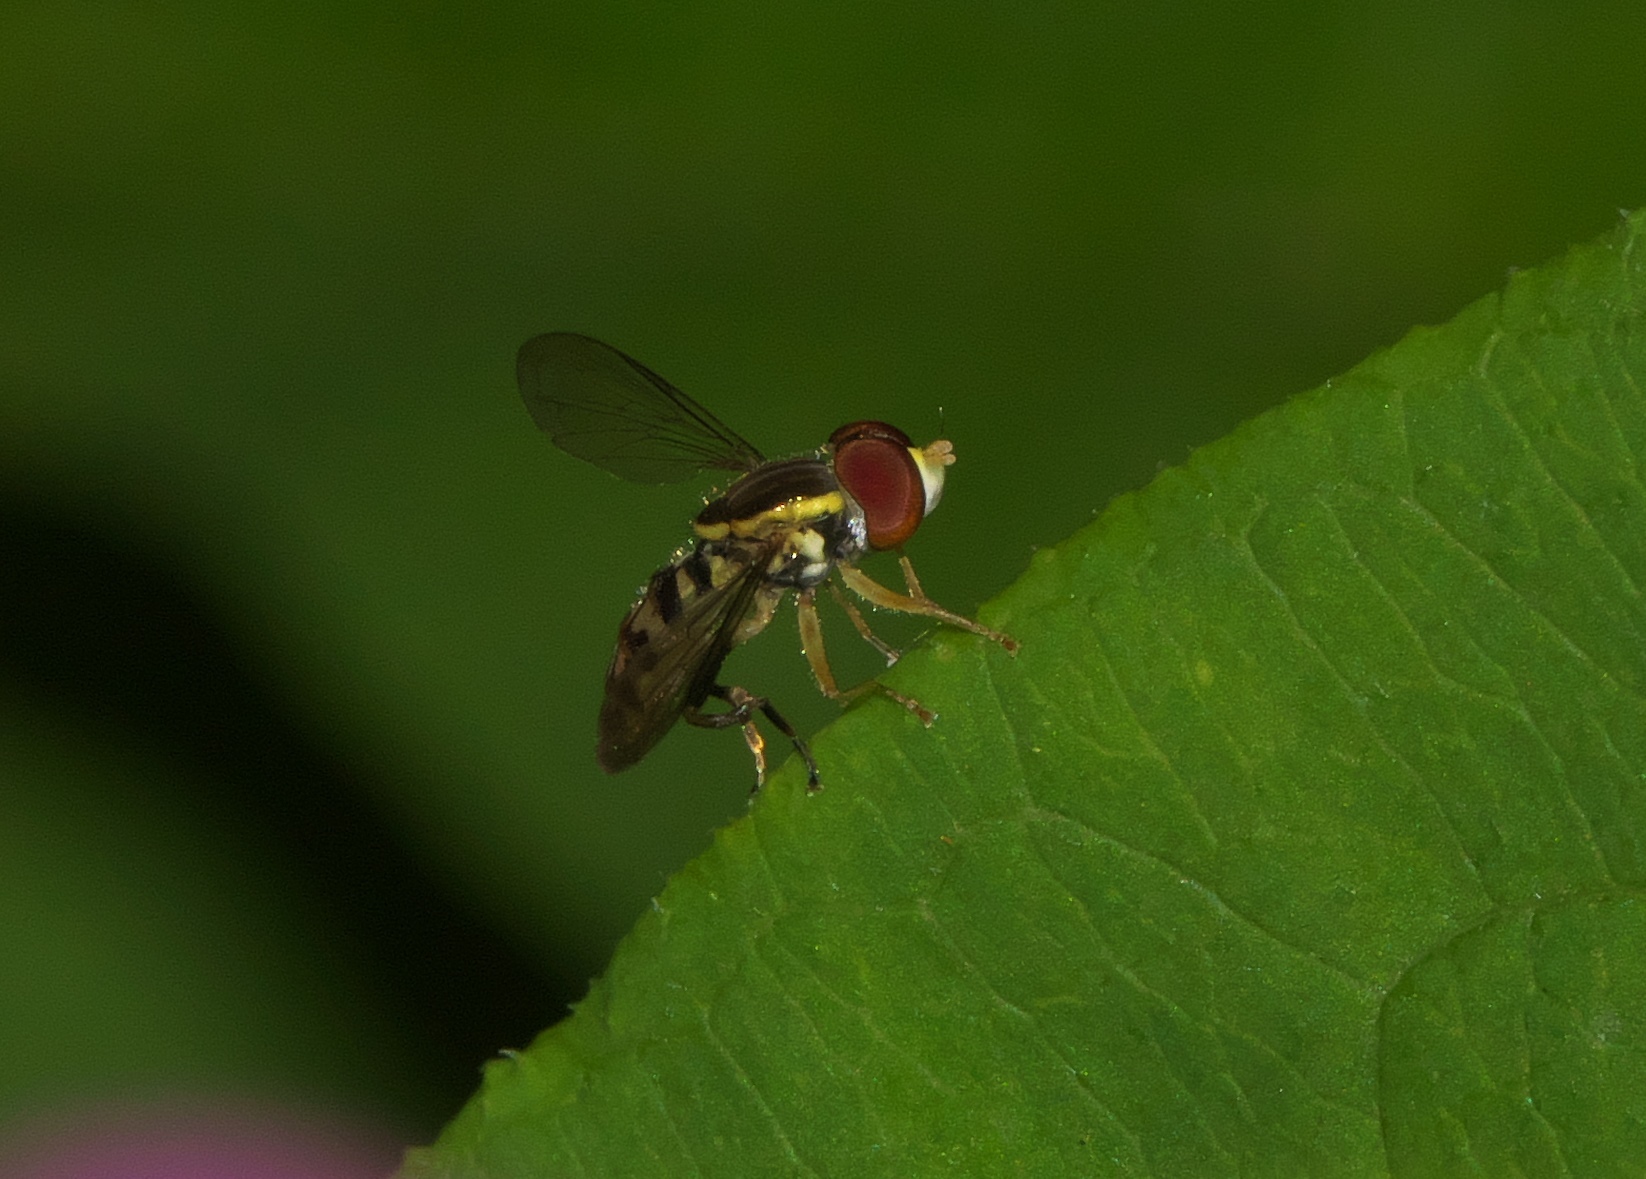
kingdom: Animalia
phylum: Arthropoda
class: Insecta
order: Diptera
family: Syrphidae
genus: Toxomerus
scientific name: Toxomerus geminatus
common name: Eastern calligrapher
